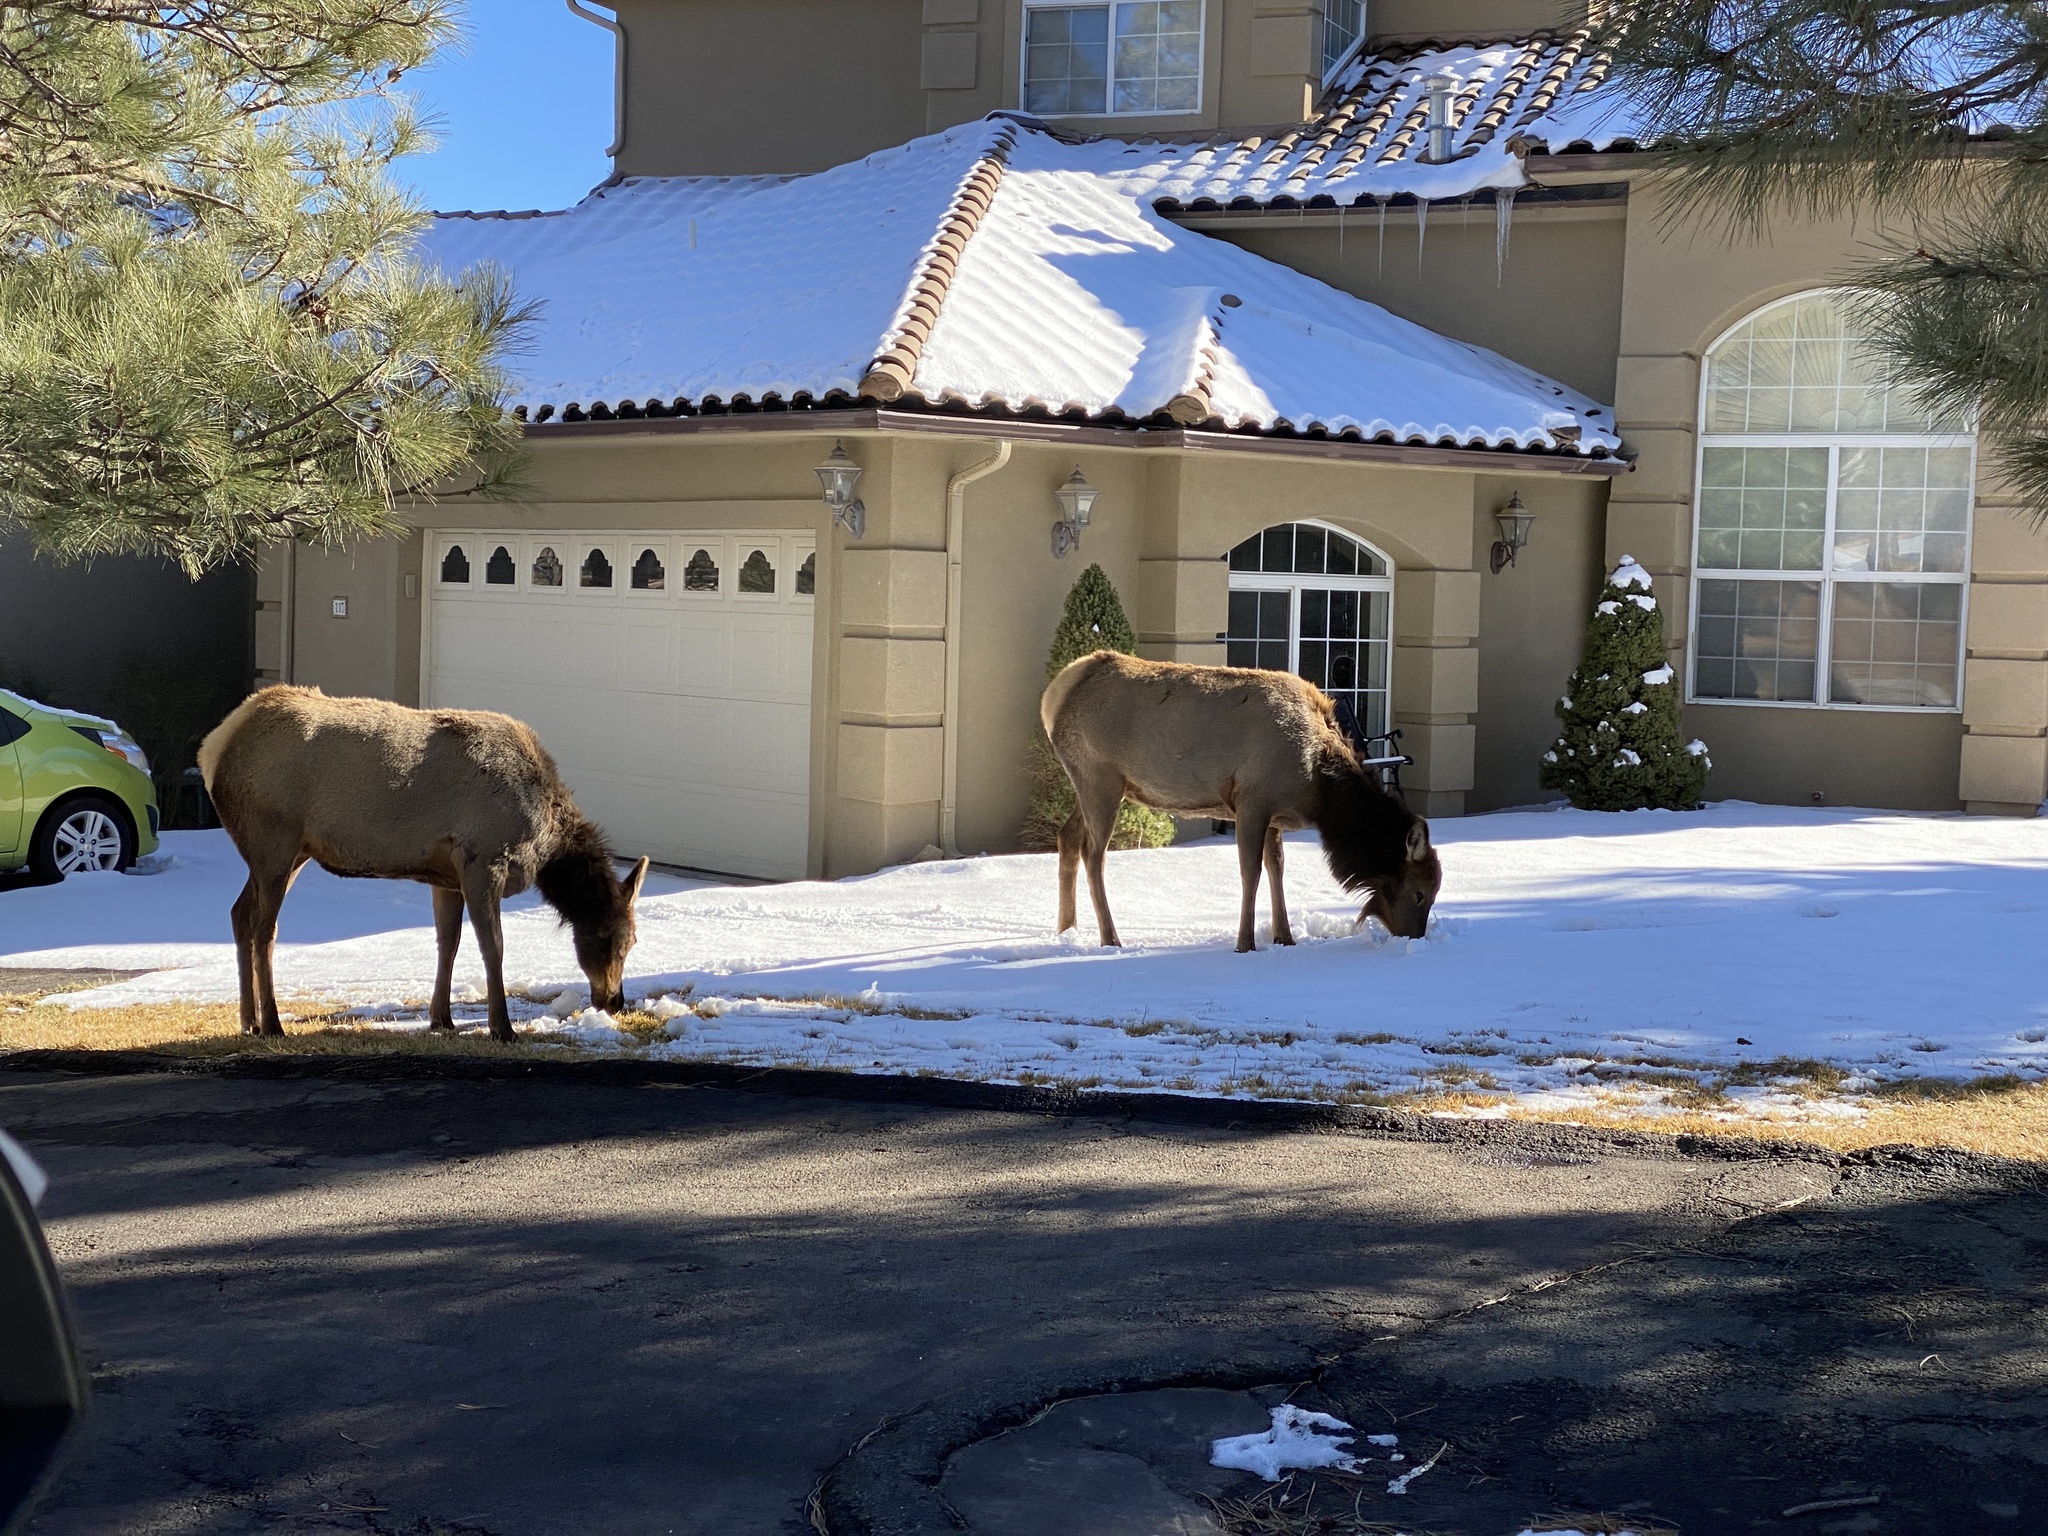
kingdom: Animalia
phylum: Chordata
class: Mammalia
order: Artiodactyla
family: Cervidae
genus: Cervus
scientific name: Cervus elaphus
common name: Red deer
